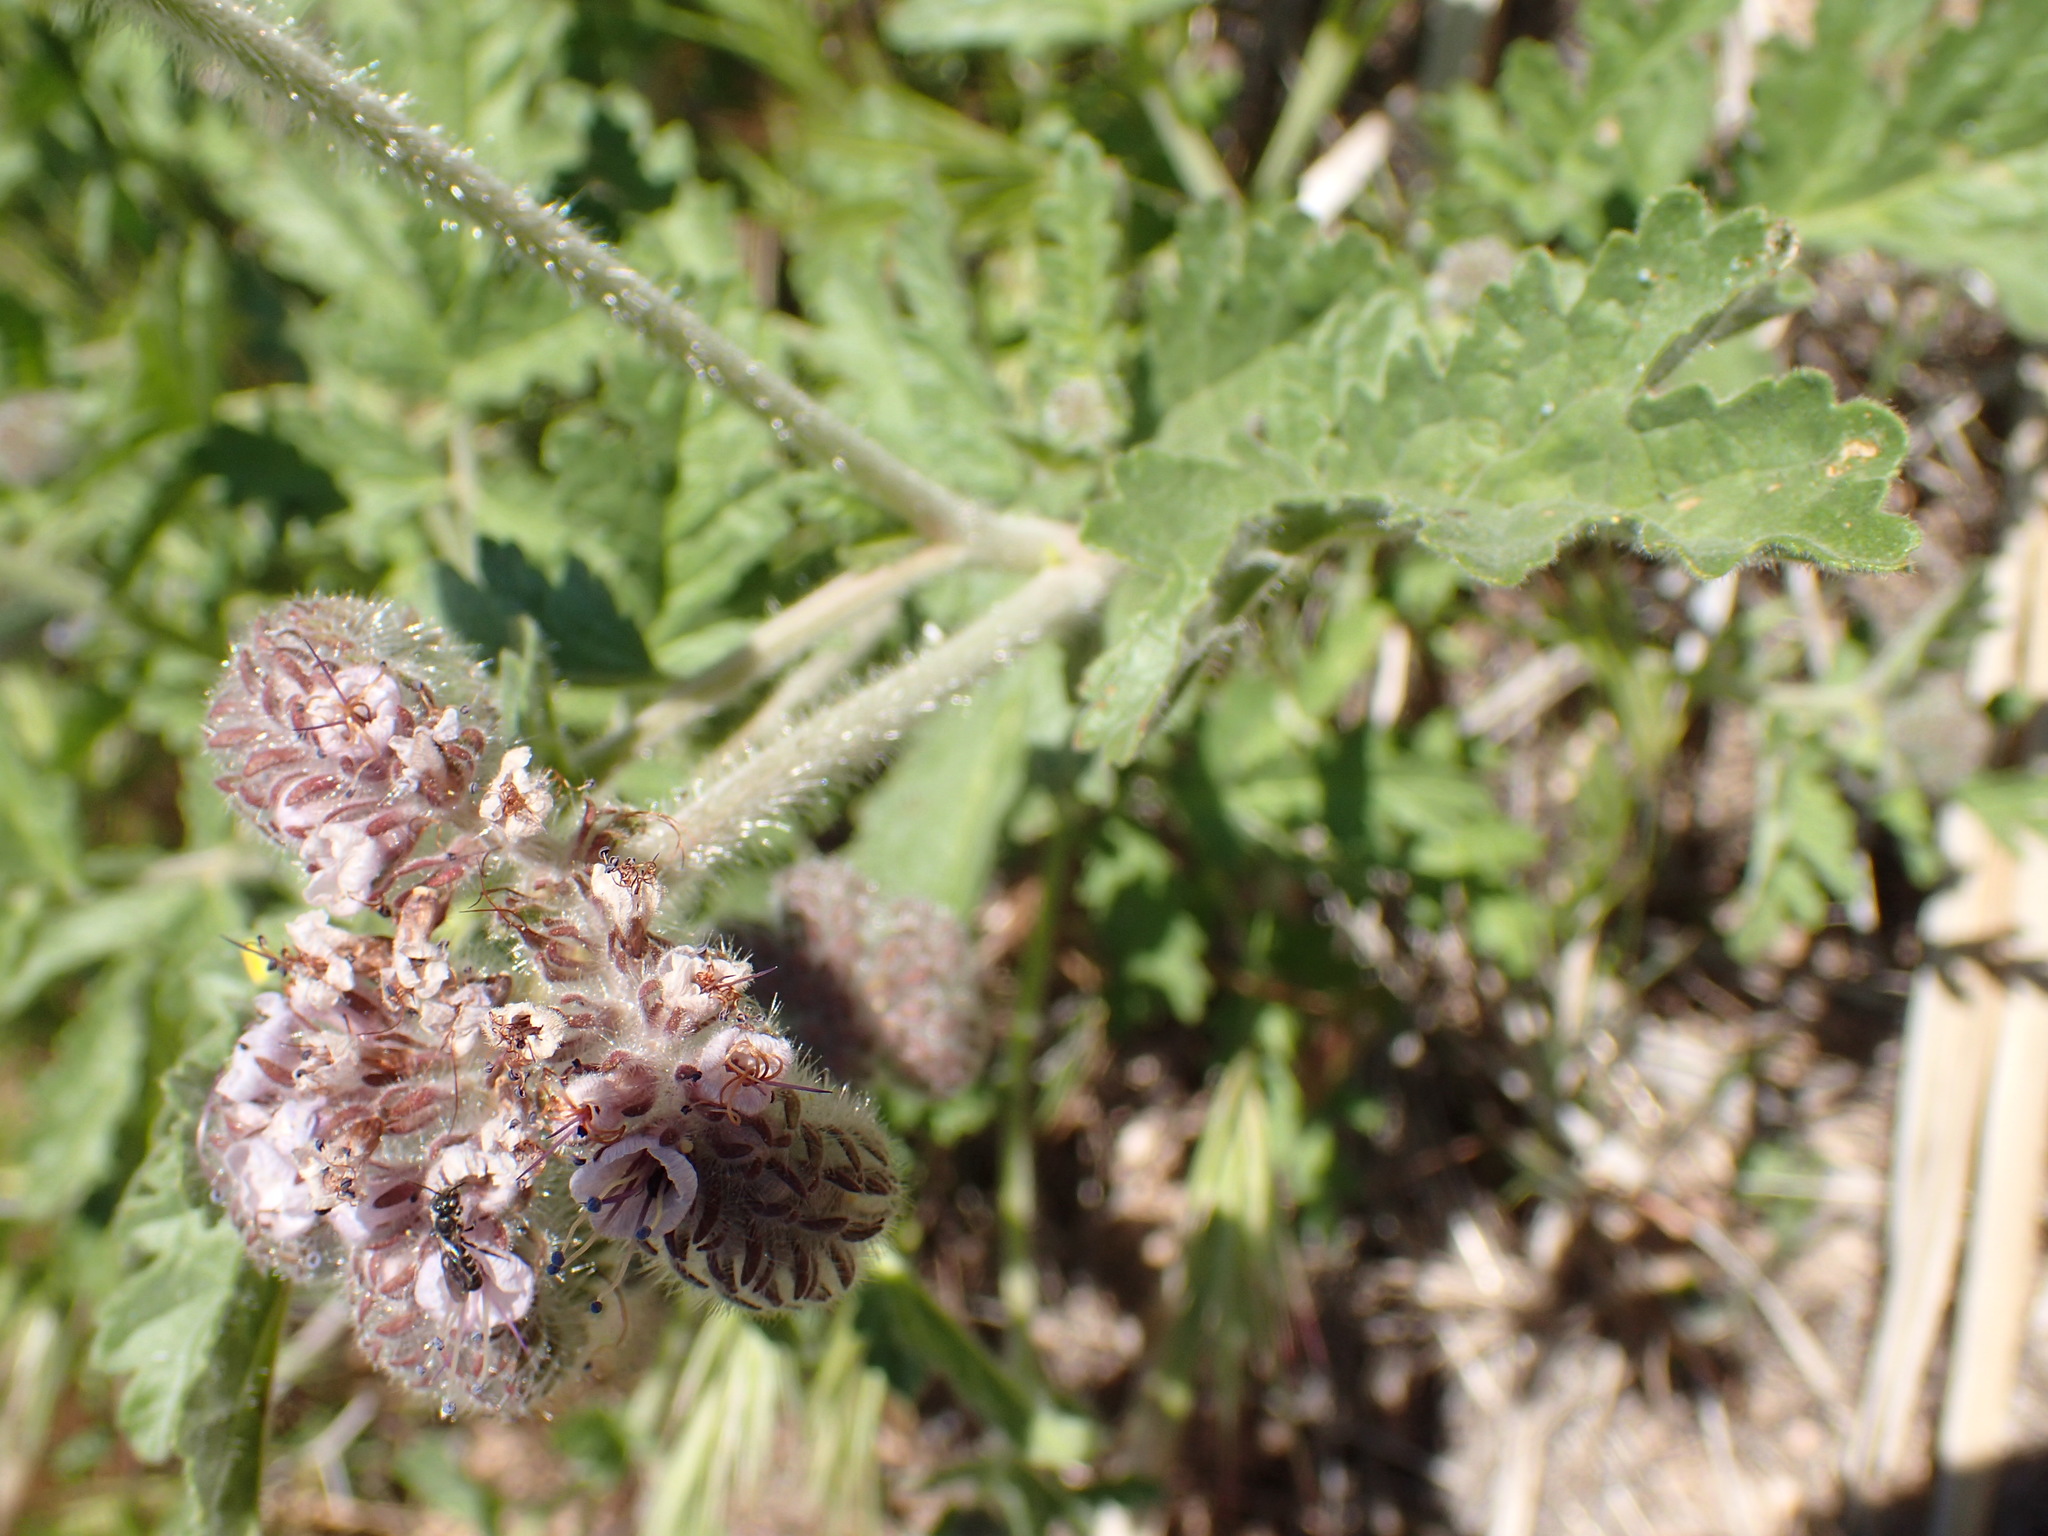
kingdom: Plantae
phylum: Tracheophyta
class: Magnoliopsida
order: Boraginales
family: Hydrophyllaceae
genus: Phacelia
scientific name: Phacelia hubbyi
